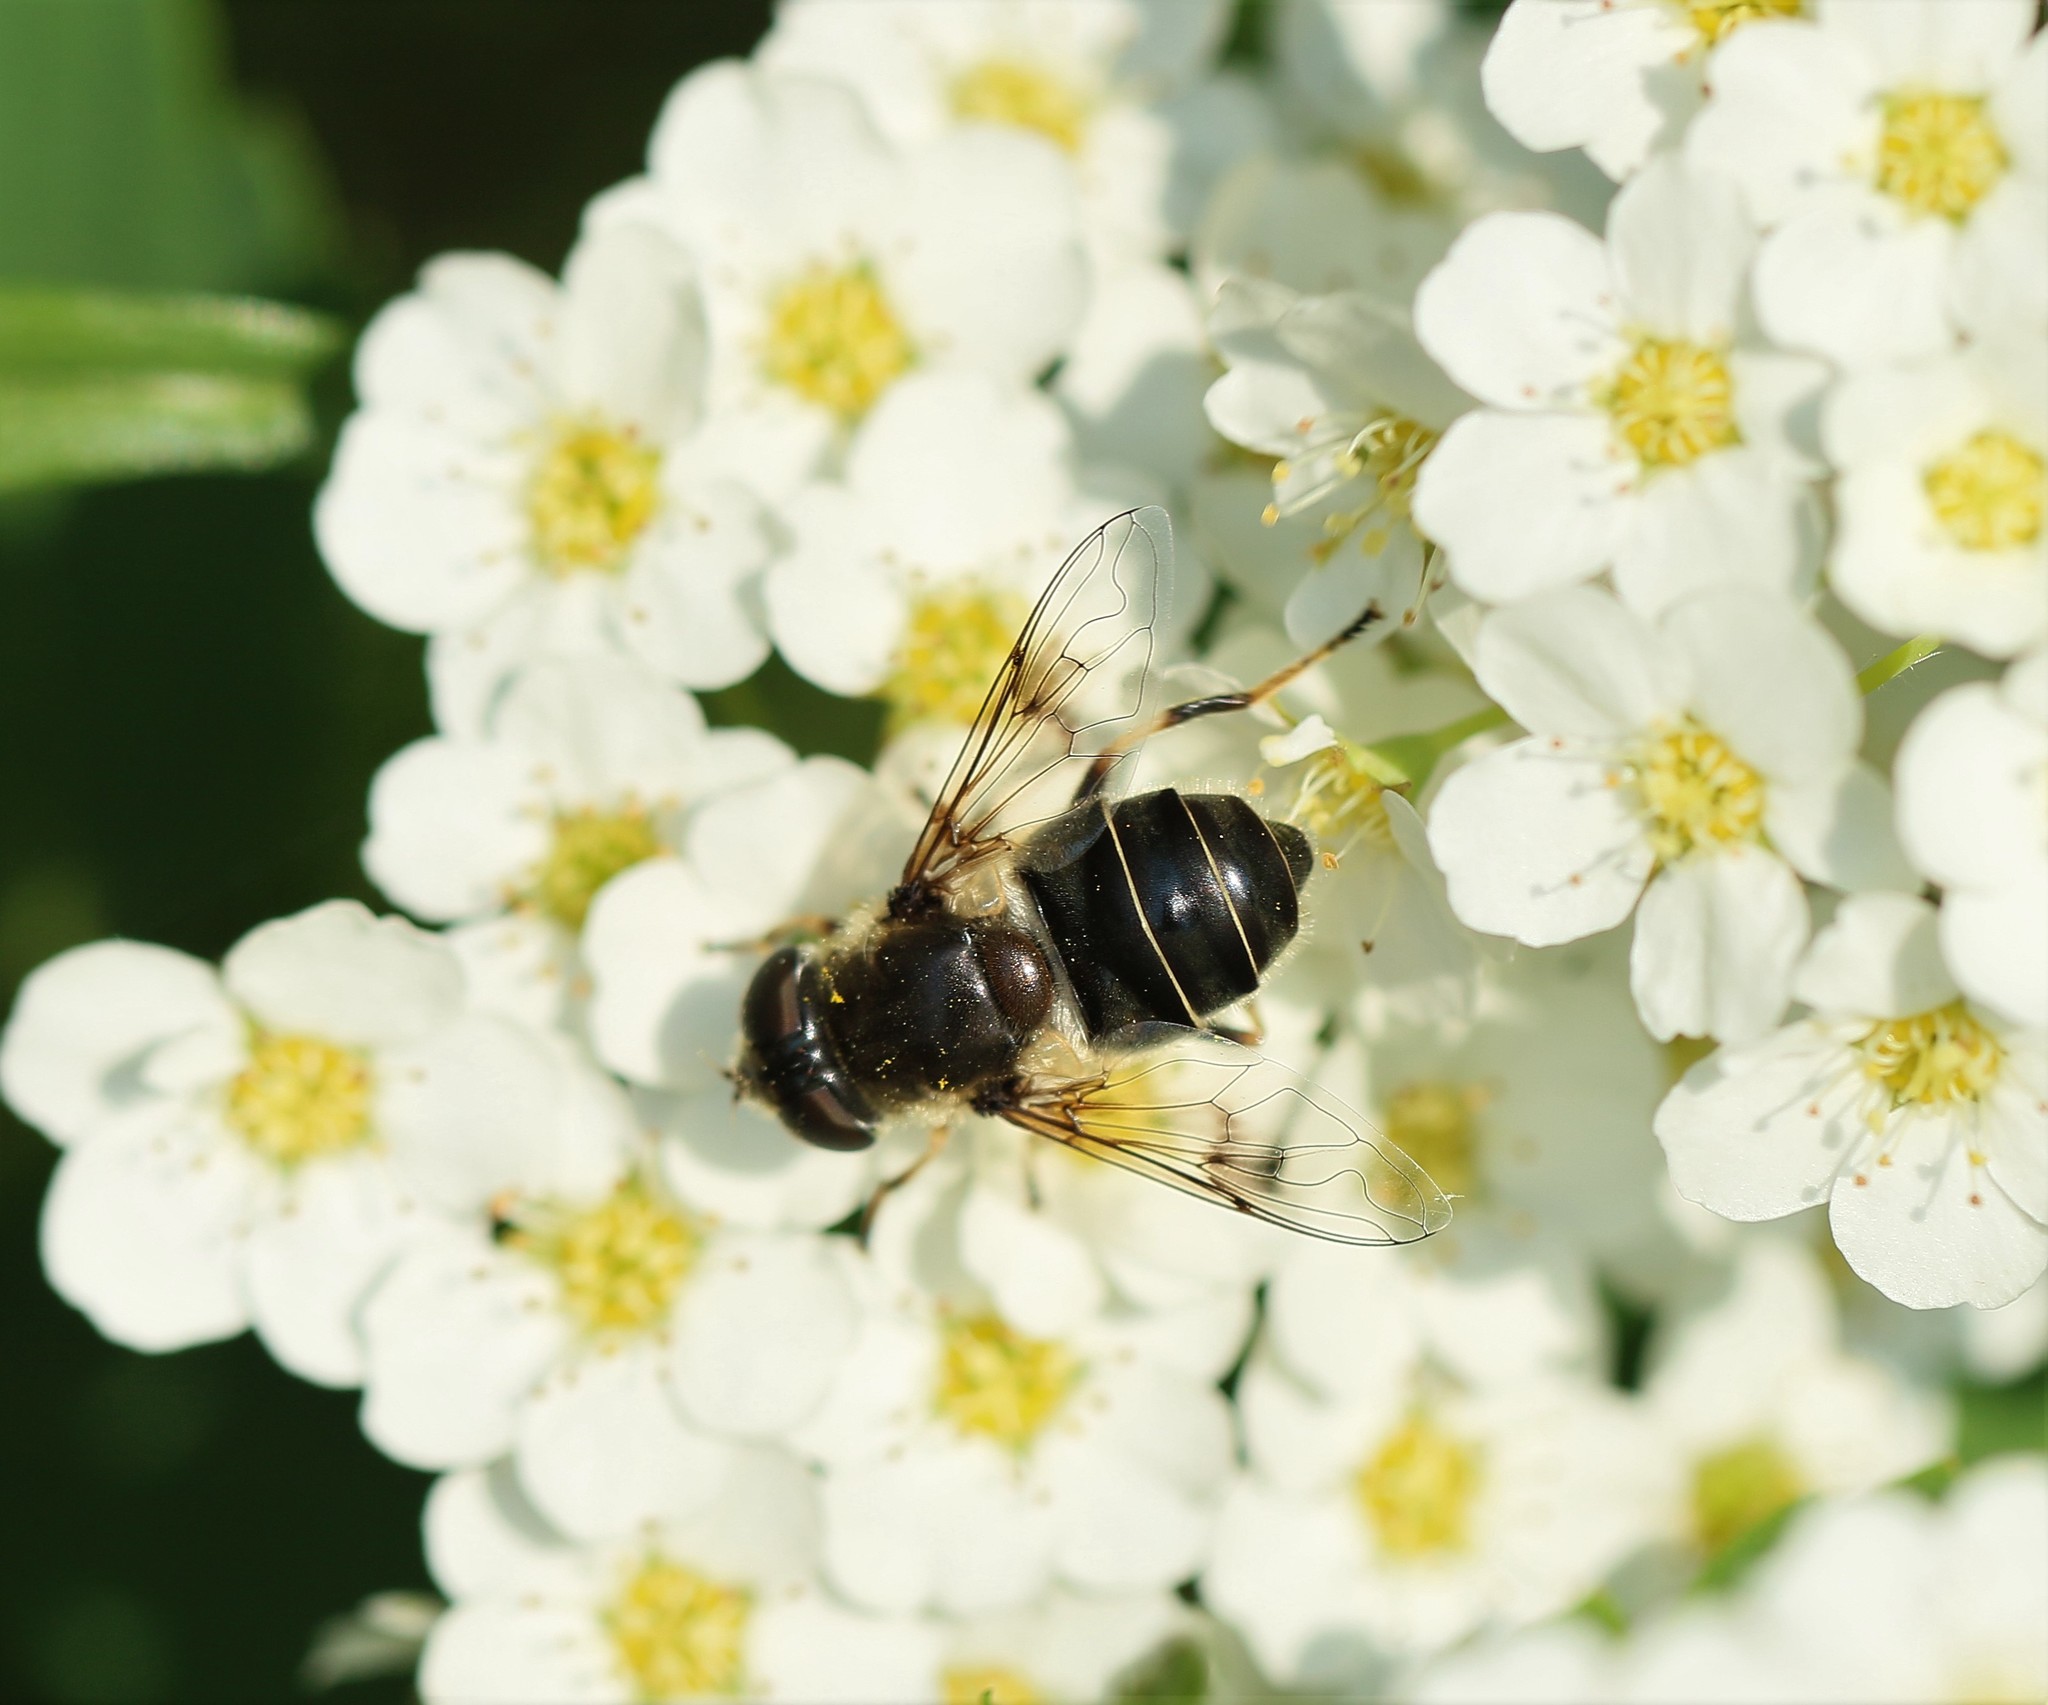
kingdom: Animalia
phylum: Arthropoda
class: Insecta
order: Diptera
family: Syrphidae
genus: Eristalis
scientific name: Eristalis obscura
